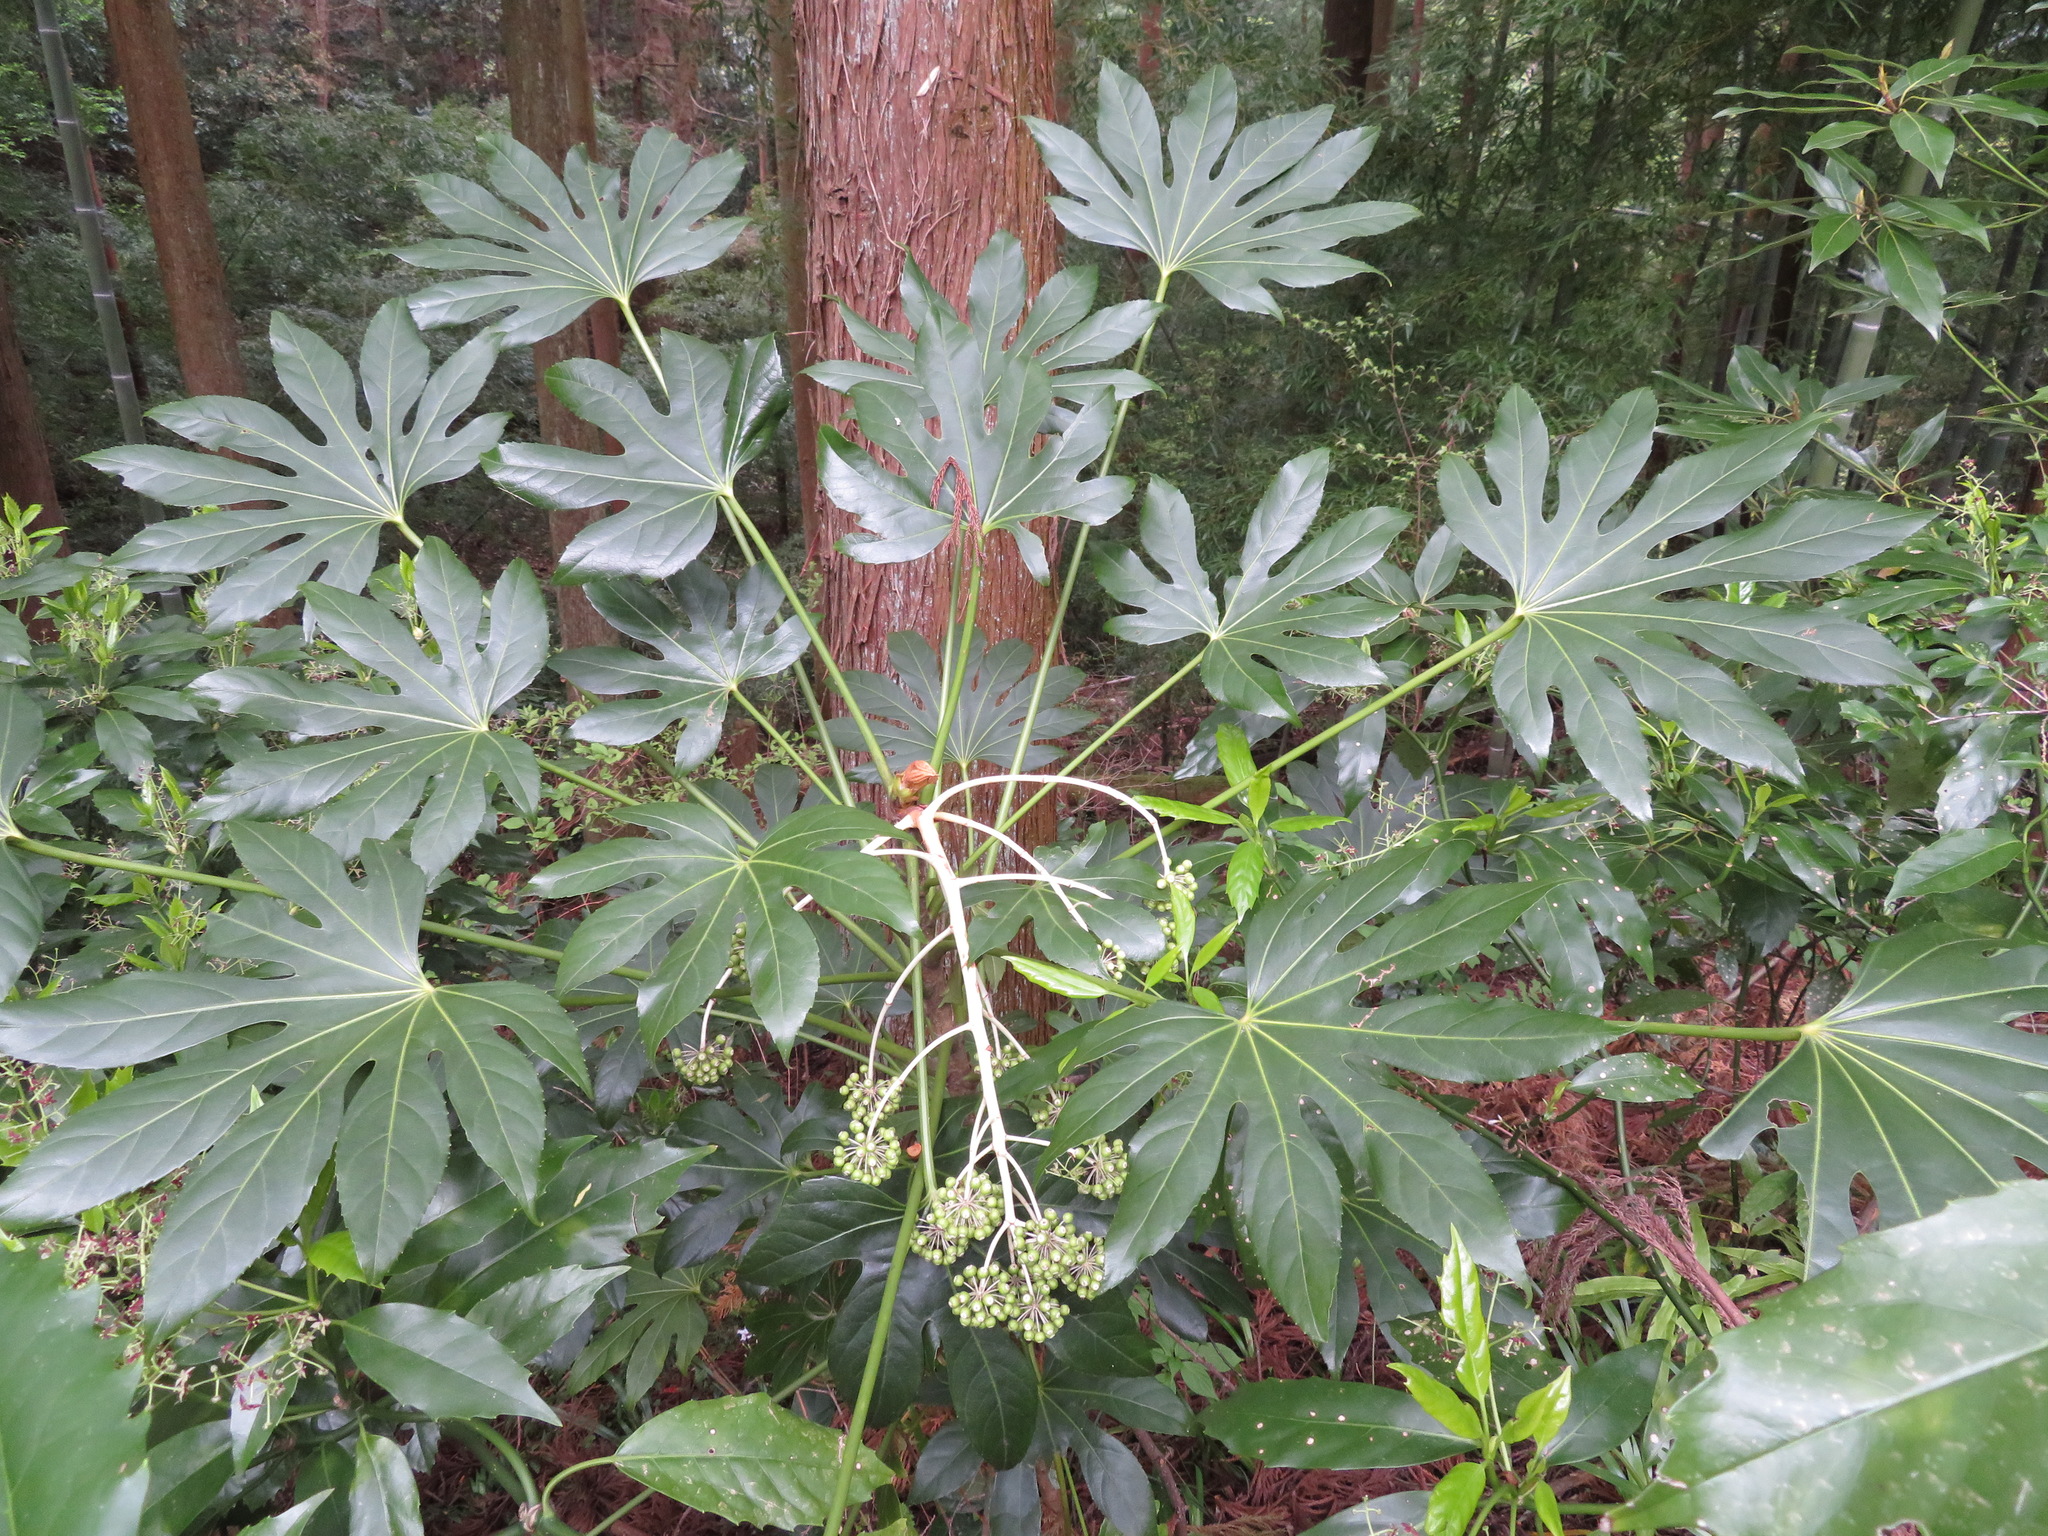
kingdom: Plantae
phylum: Tracheophyta
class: Magnoliopsida
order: Apiales
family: Araliaceae
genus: Fatsia
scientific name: Fatsia japonica
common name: Fatsia
